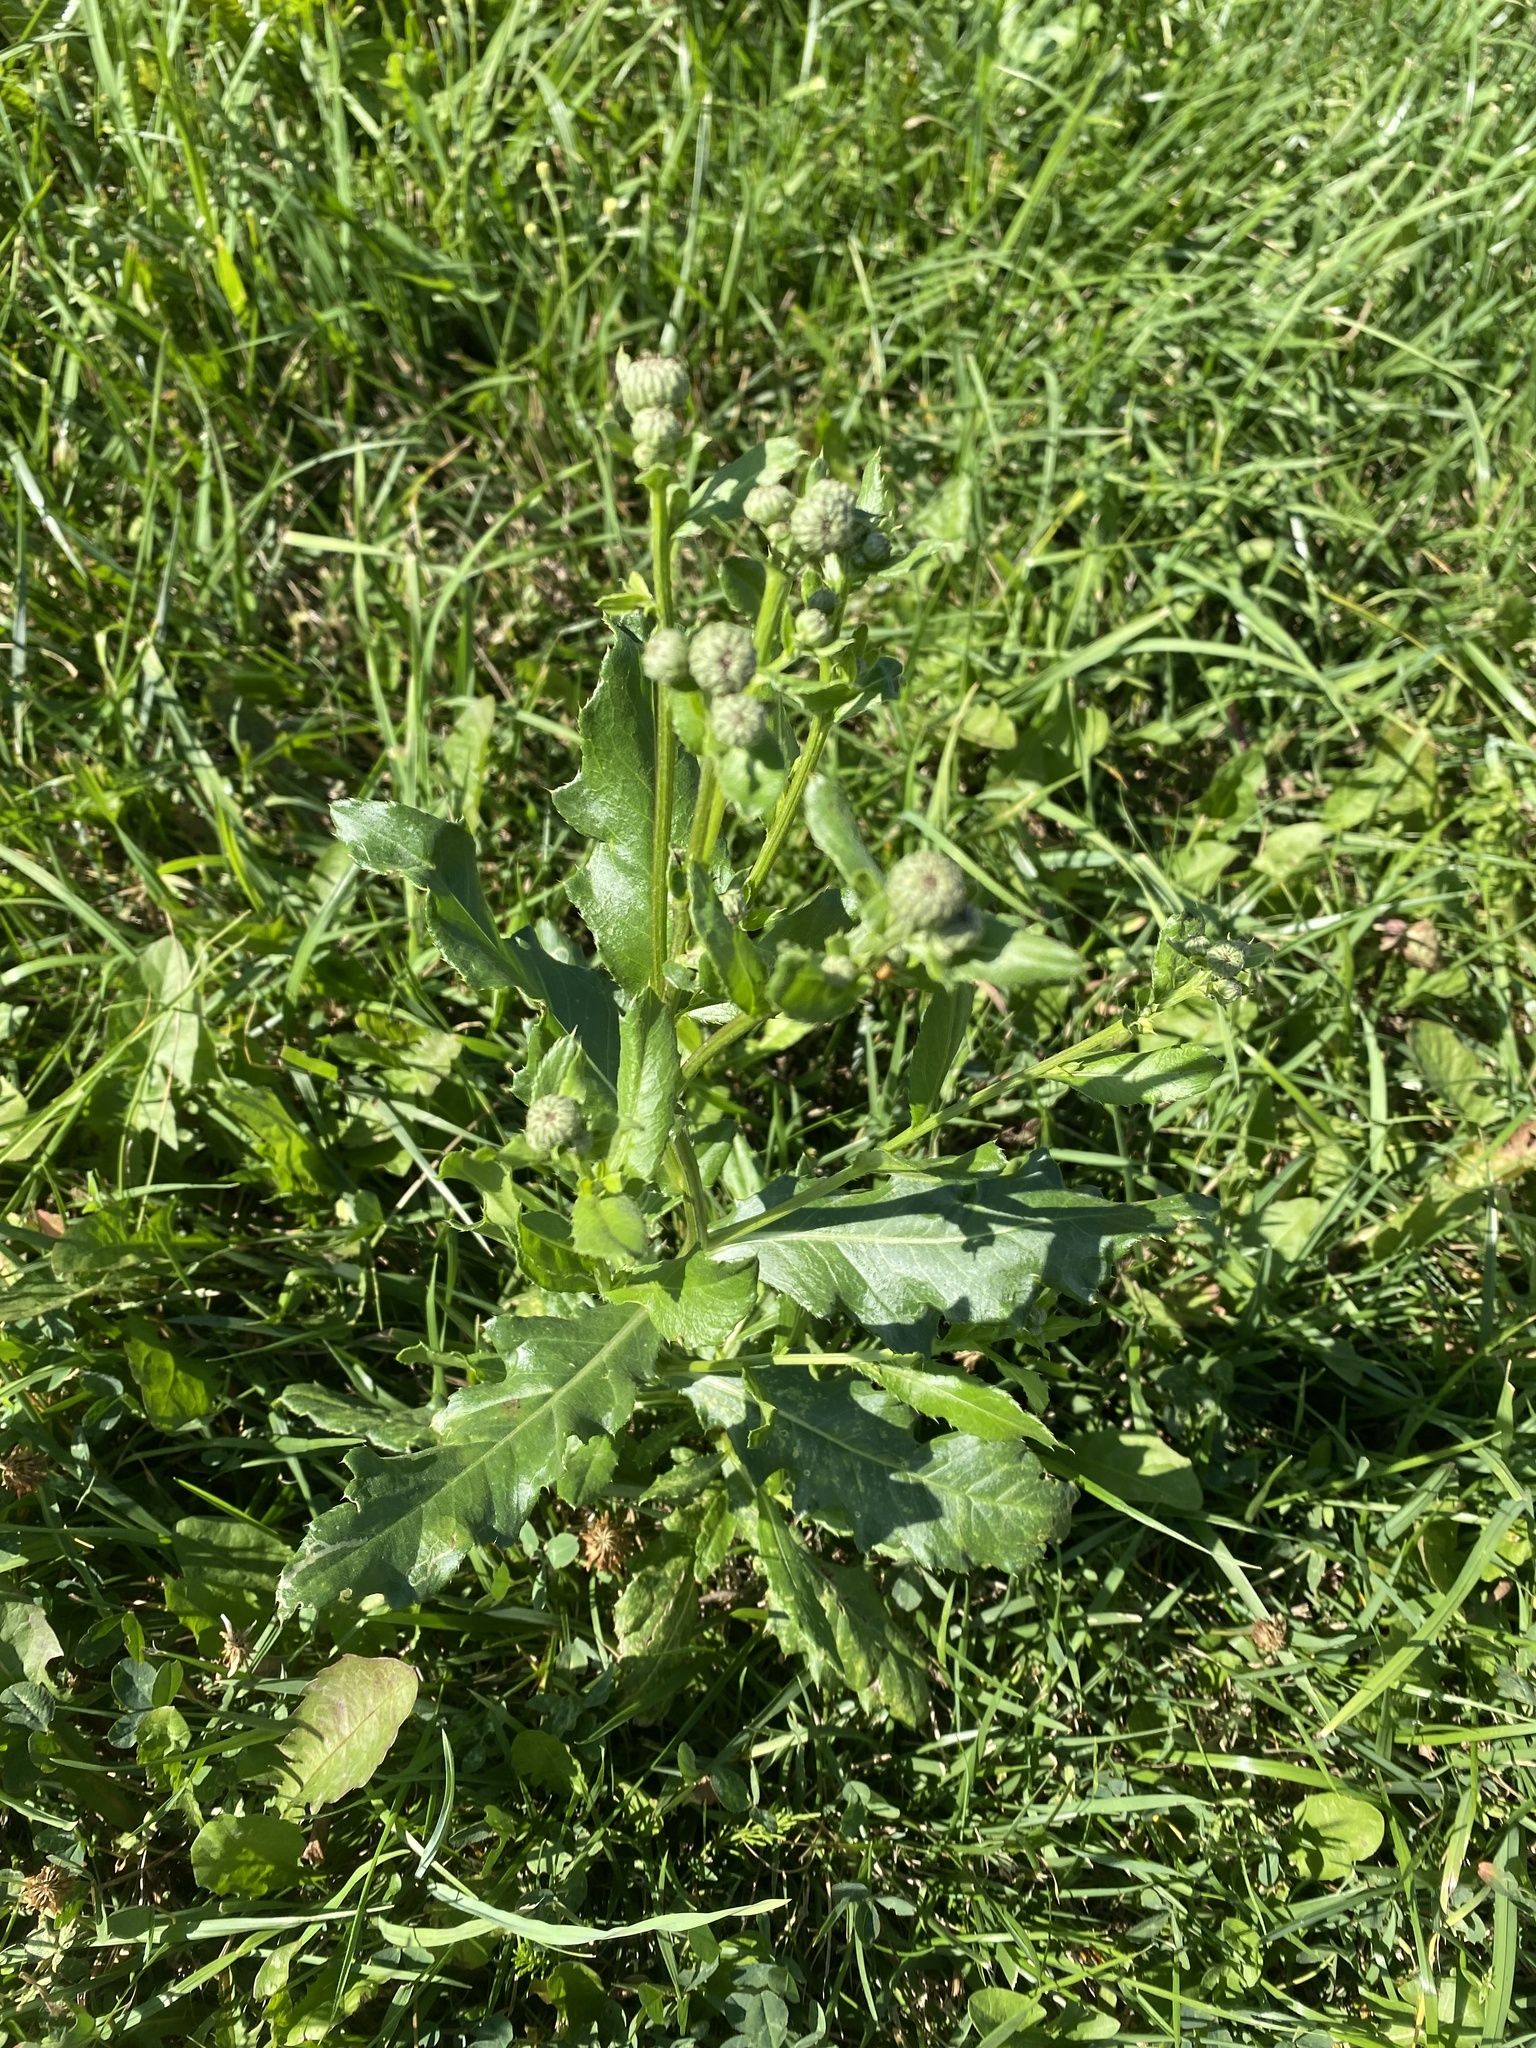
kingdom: Plantae
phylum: Tracheophyta
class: Magnoliopsida
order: Asterales
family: Asteraceae
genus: Cirsium
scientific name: Cirsium arvense
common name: Creeping thistle
